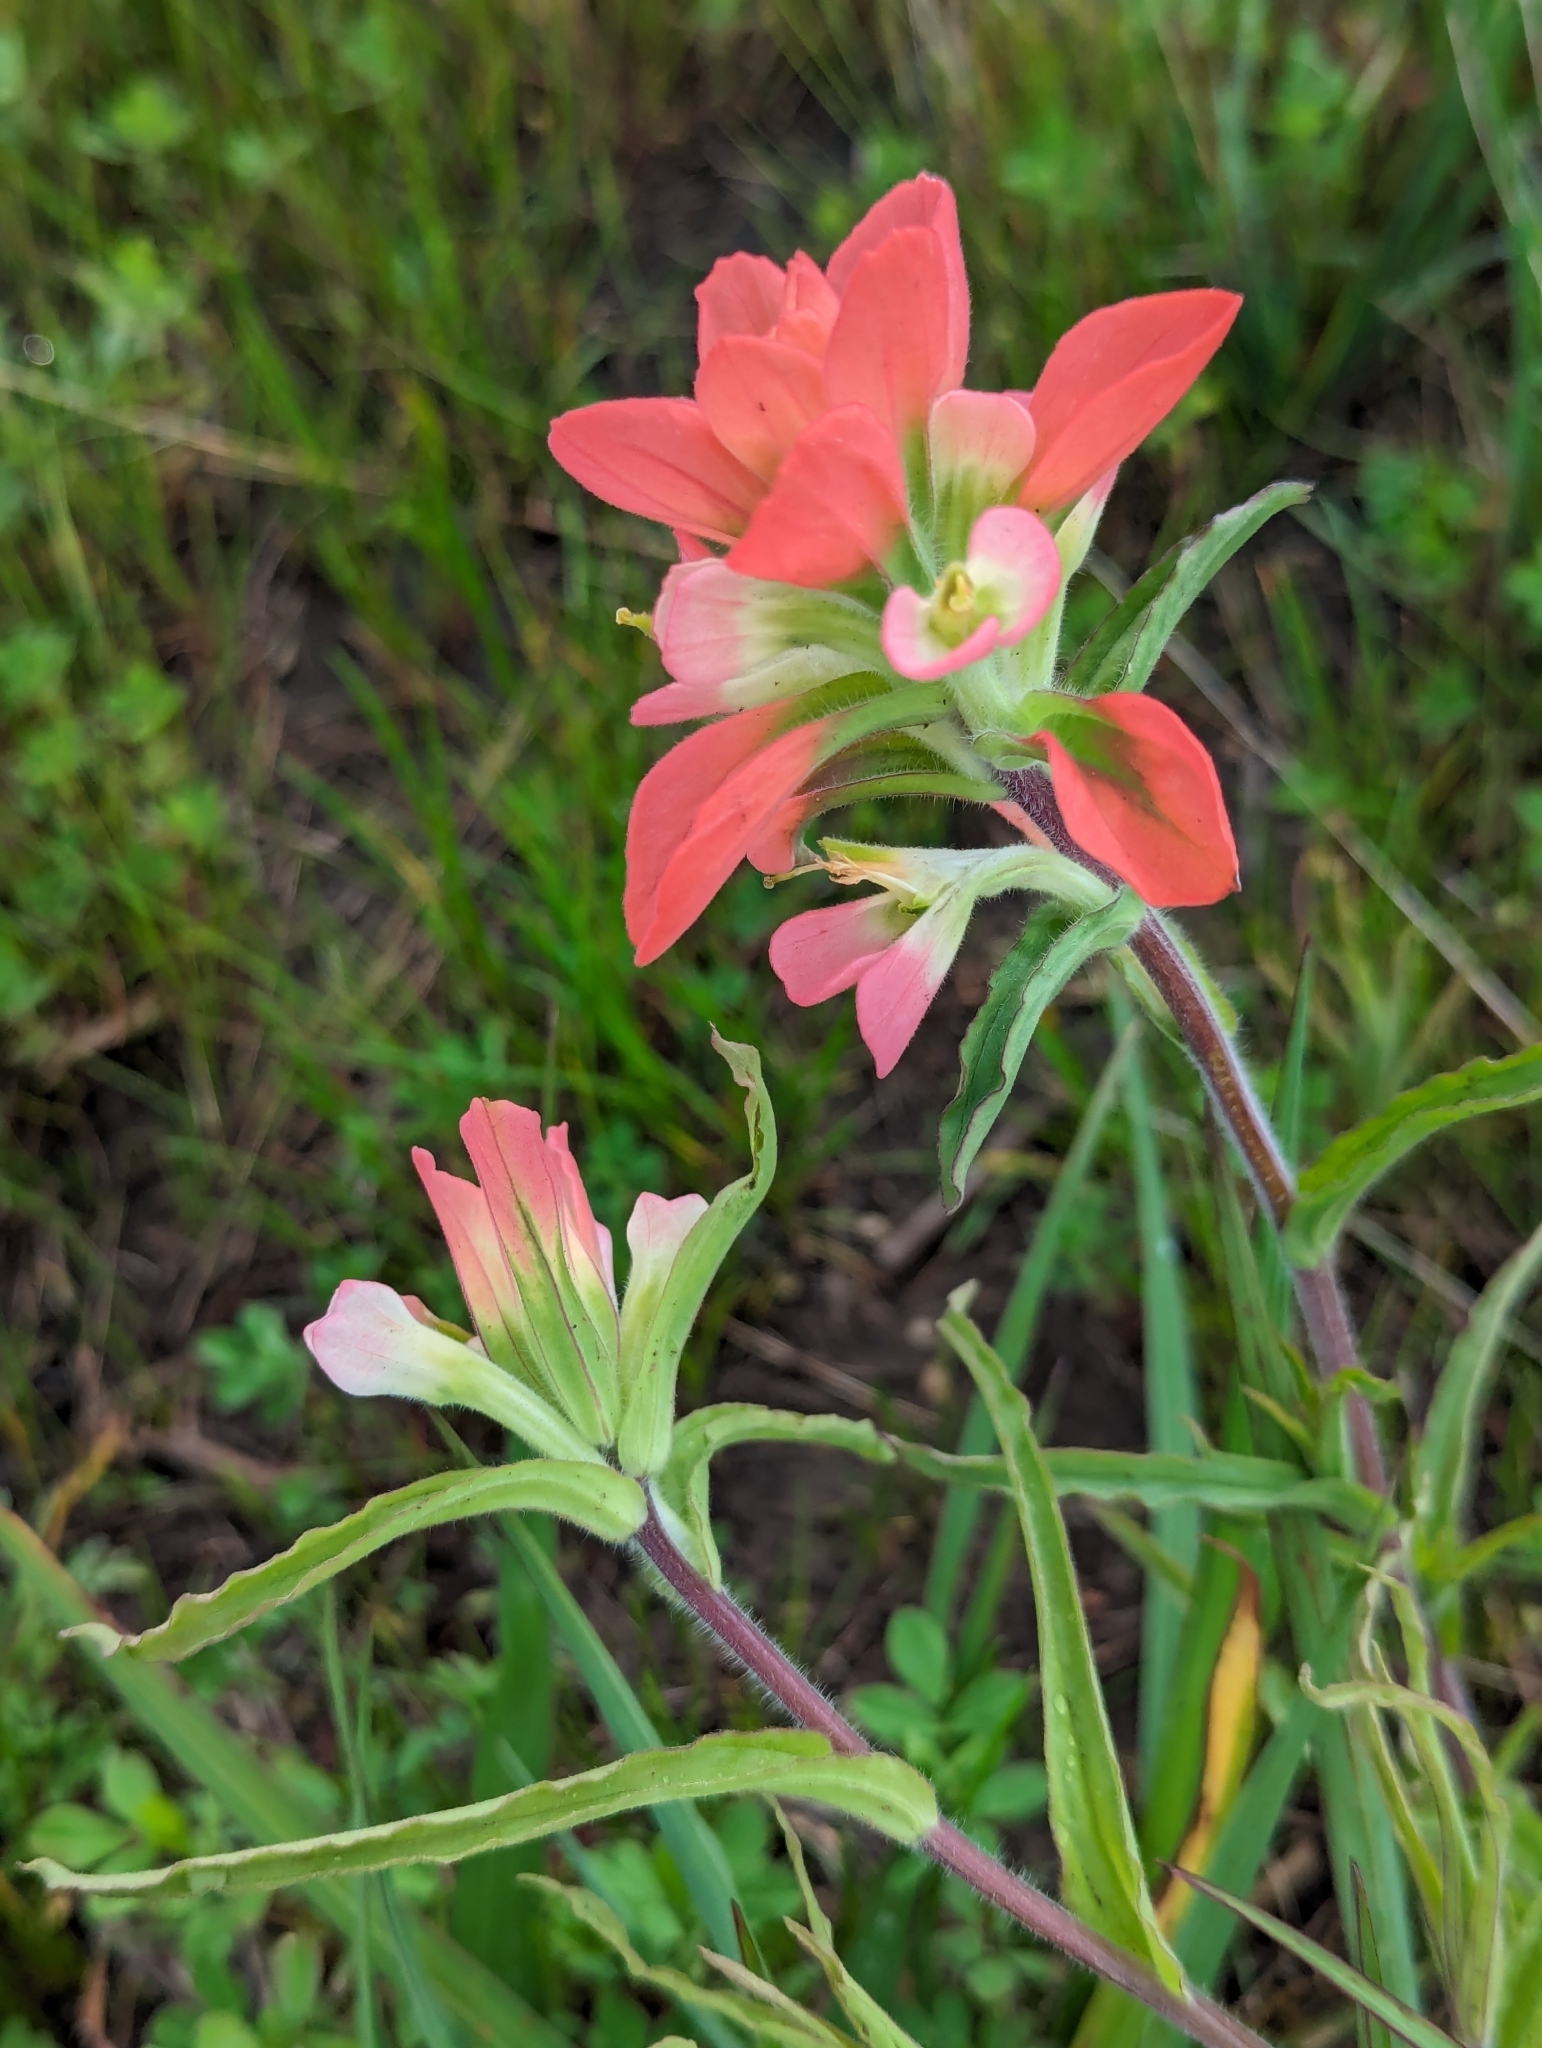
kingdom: Plantae
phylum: Tracheophyta
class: Magnoliopsida
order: Lamiales
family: Orobanchaceae
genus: Castilleja
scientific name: Castilleja indivisa
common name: Texas paintbrush
